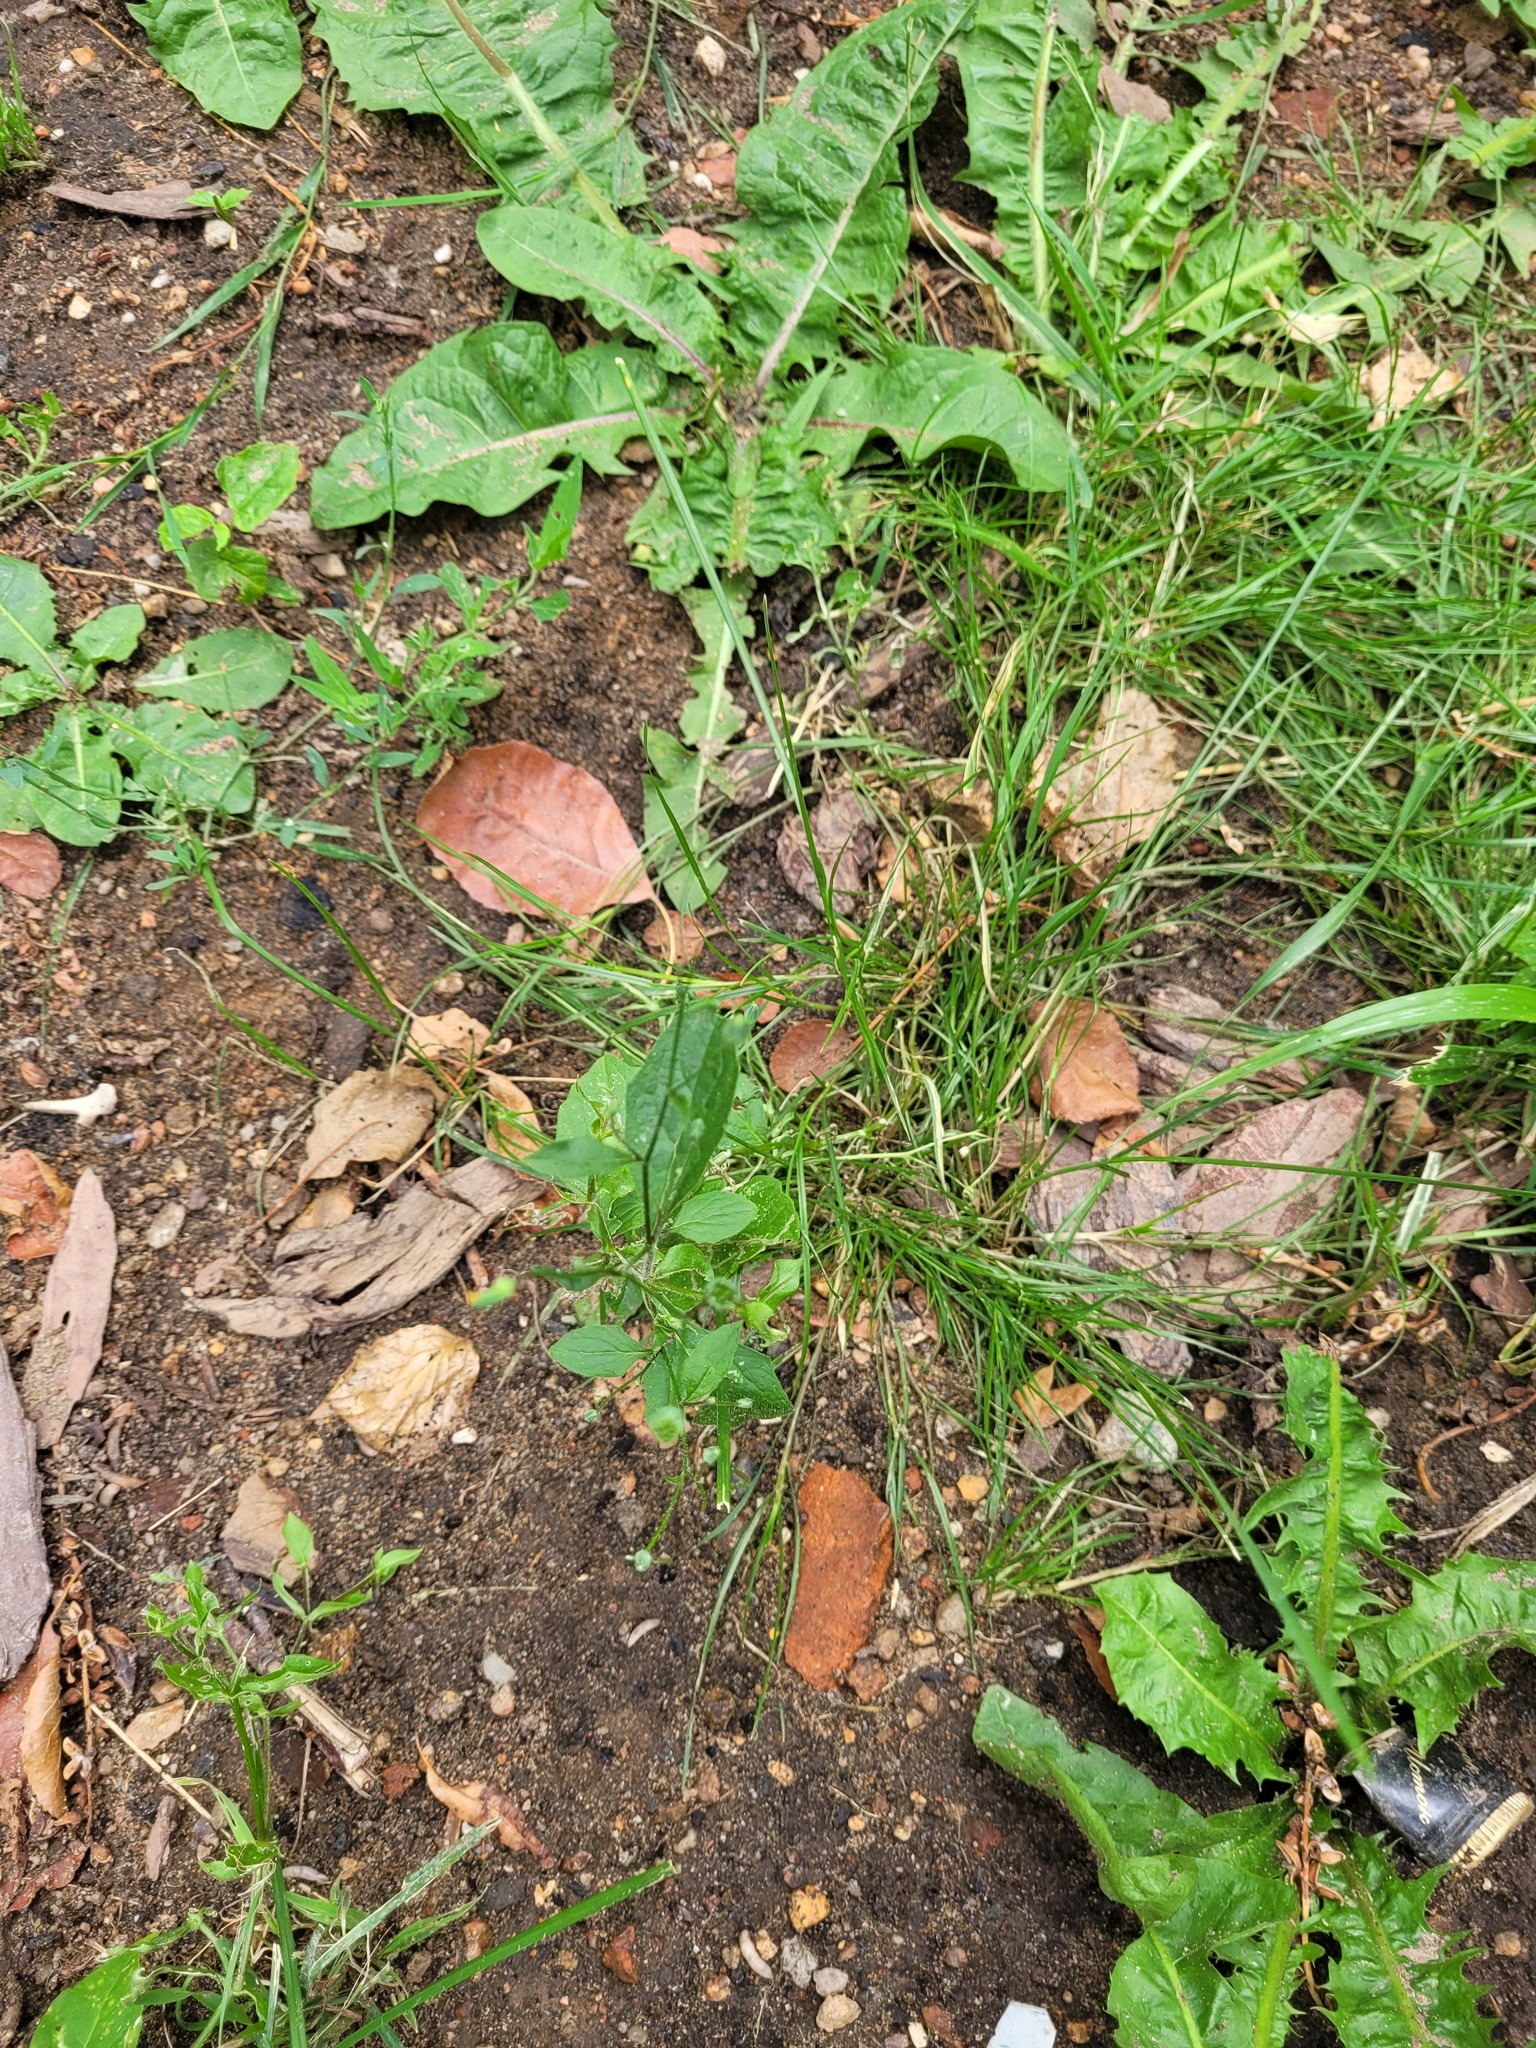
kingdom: Plantae
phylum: Tracheophyta
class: Magnoliopsida
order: Asterales
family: Asteraceae
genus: Lapsana
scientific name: Lapsana communis
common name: Nipplewort
